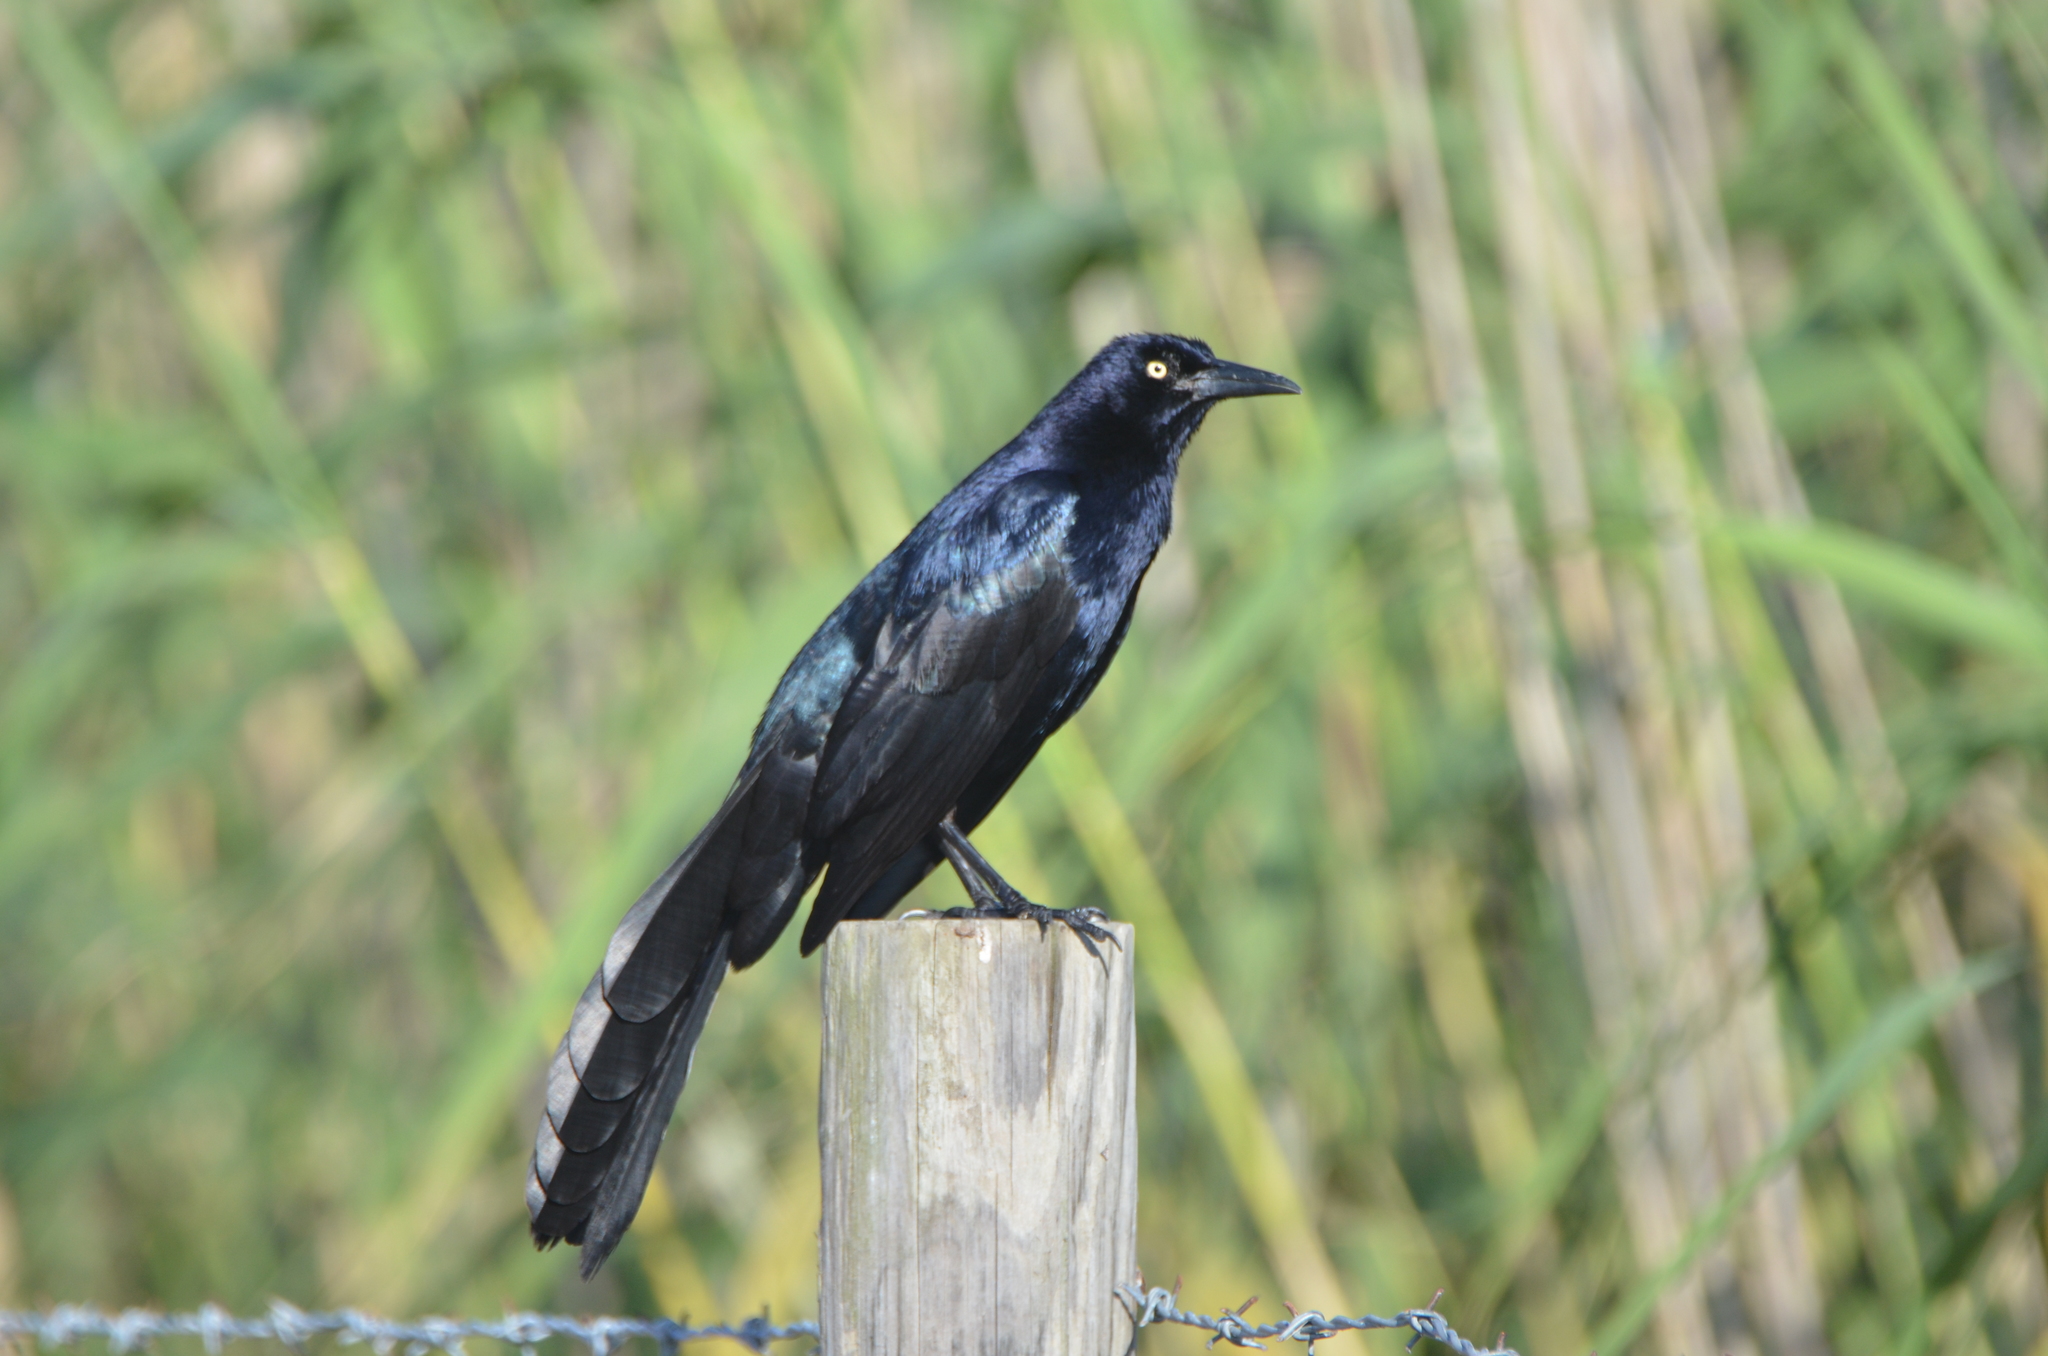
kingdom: Animalia
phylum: Chordata
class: Aves
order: Passeriformes
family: Icteridae
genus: Quiscalus
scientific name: Quiscalus mexicanus
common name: Great-tailed grackle
